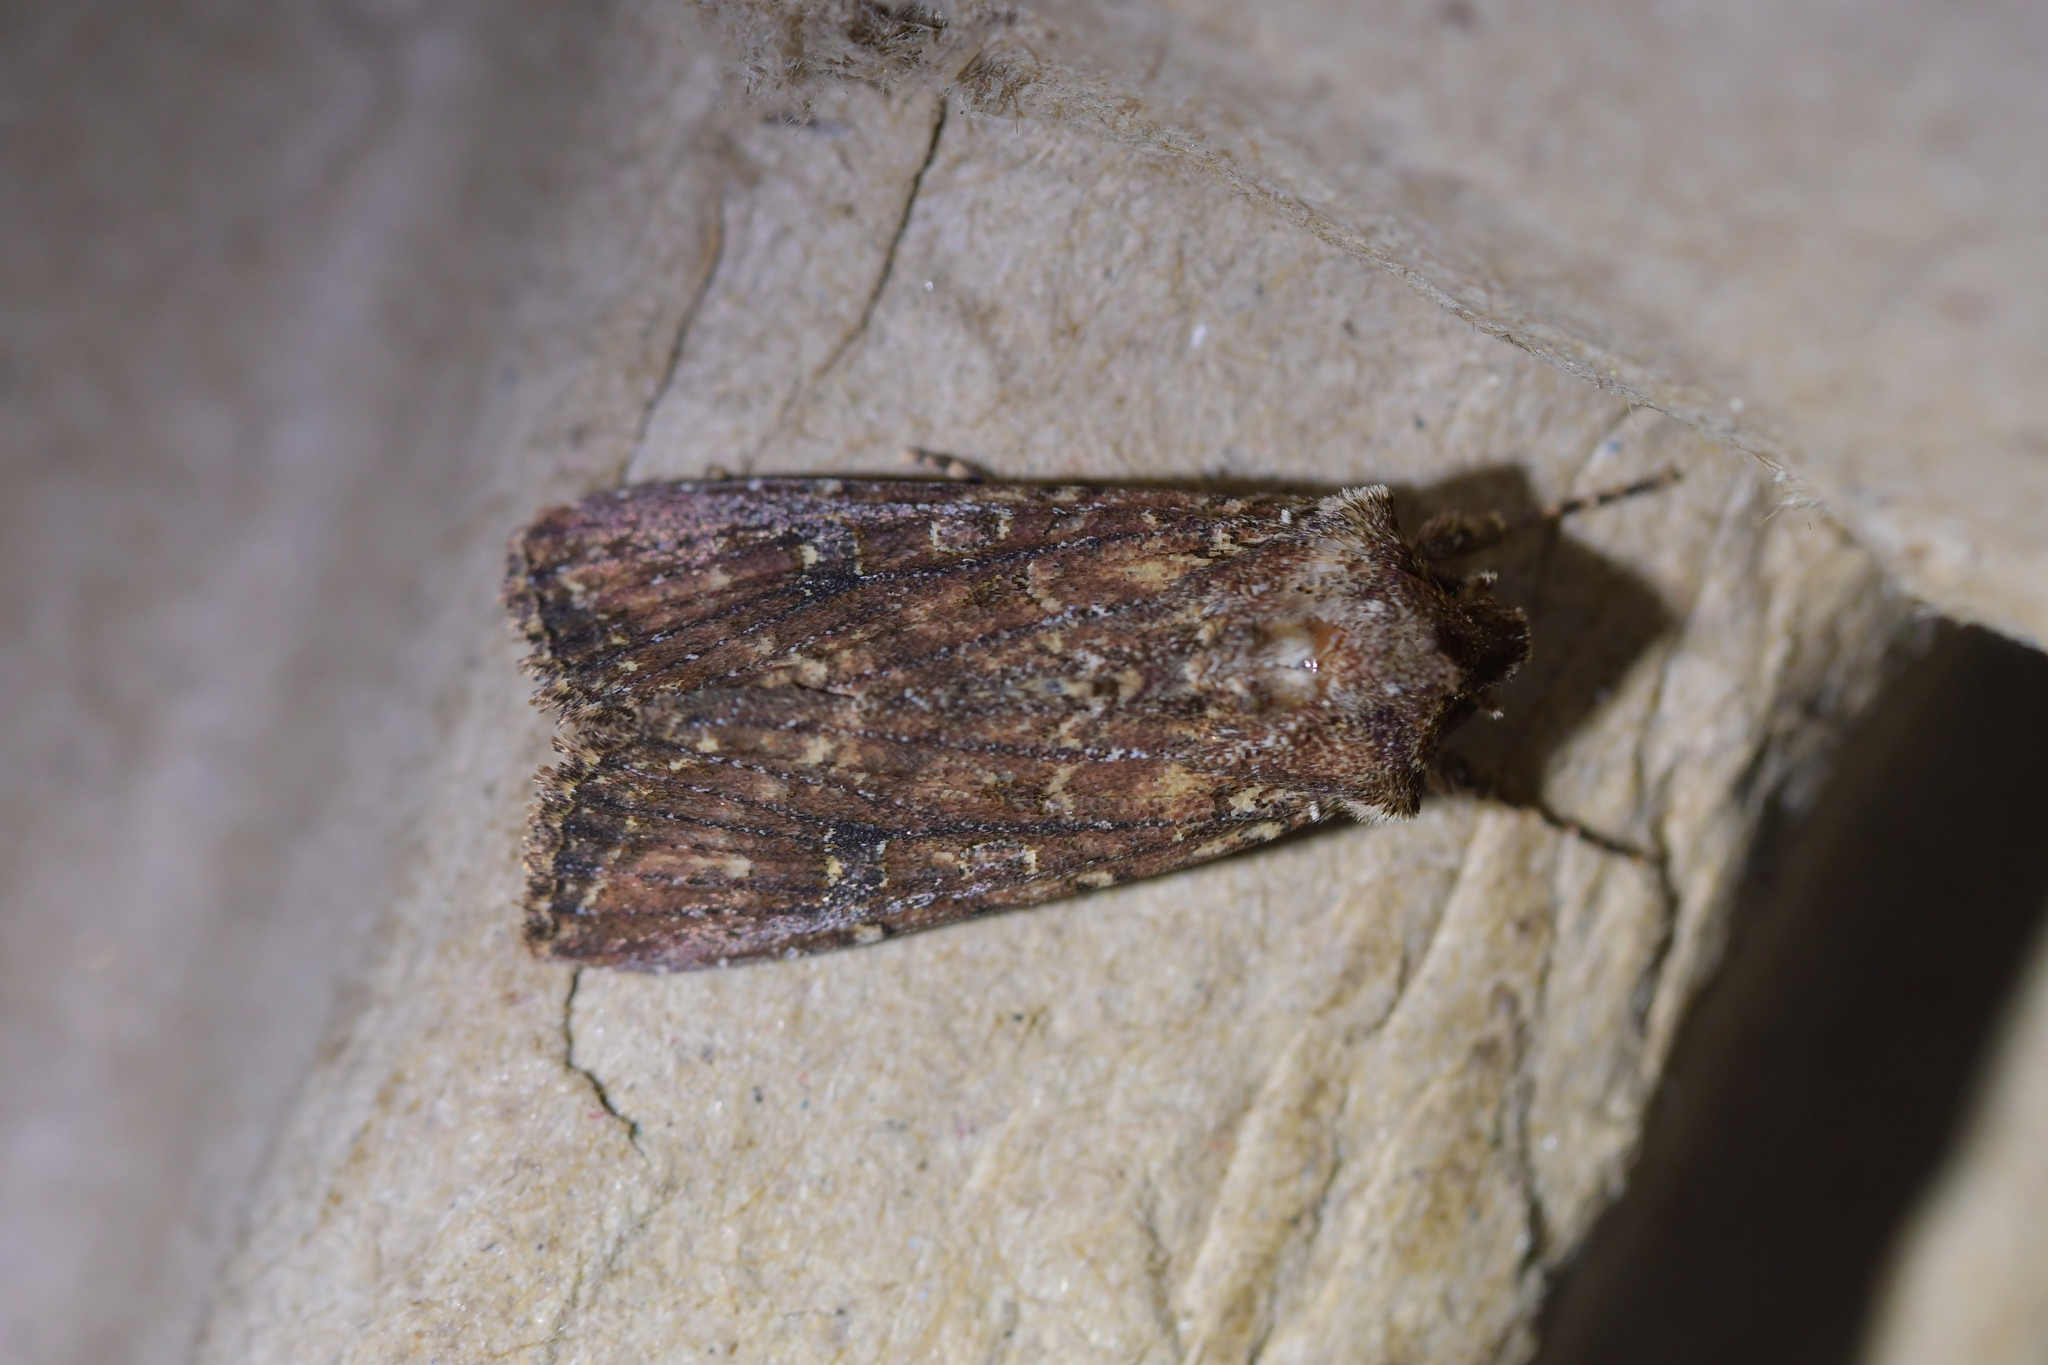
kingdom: Animalia
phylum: Arthropoda
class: Insecta
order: Lepidoptera
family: Noctuidae
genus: Ichneutica
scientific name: Ichneutica mustulenta
